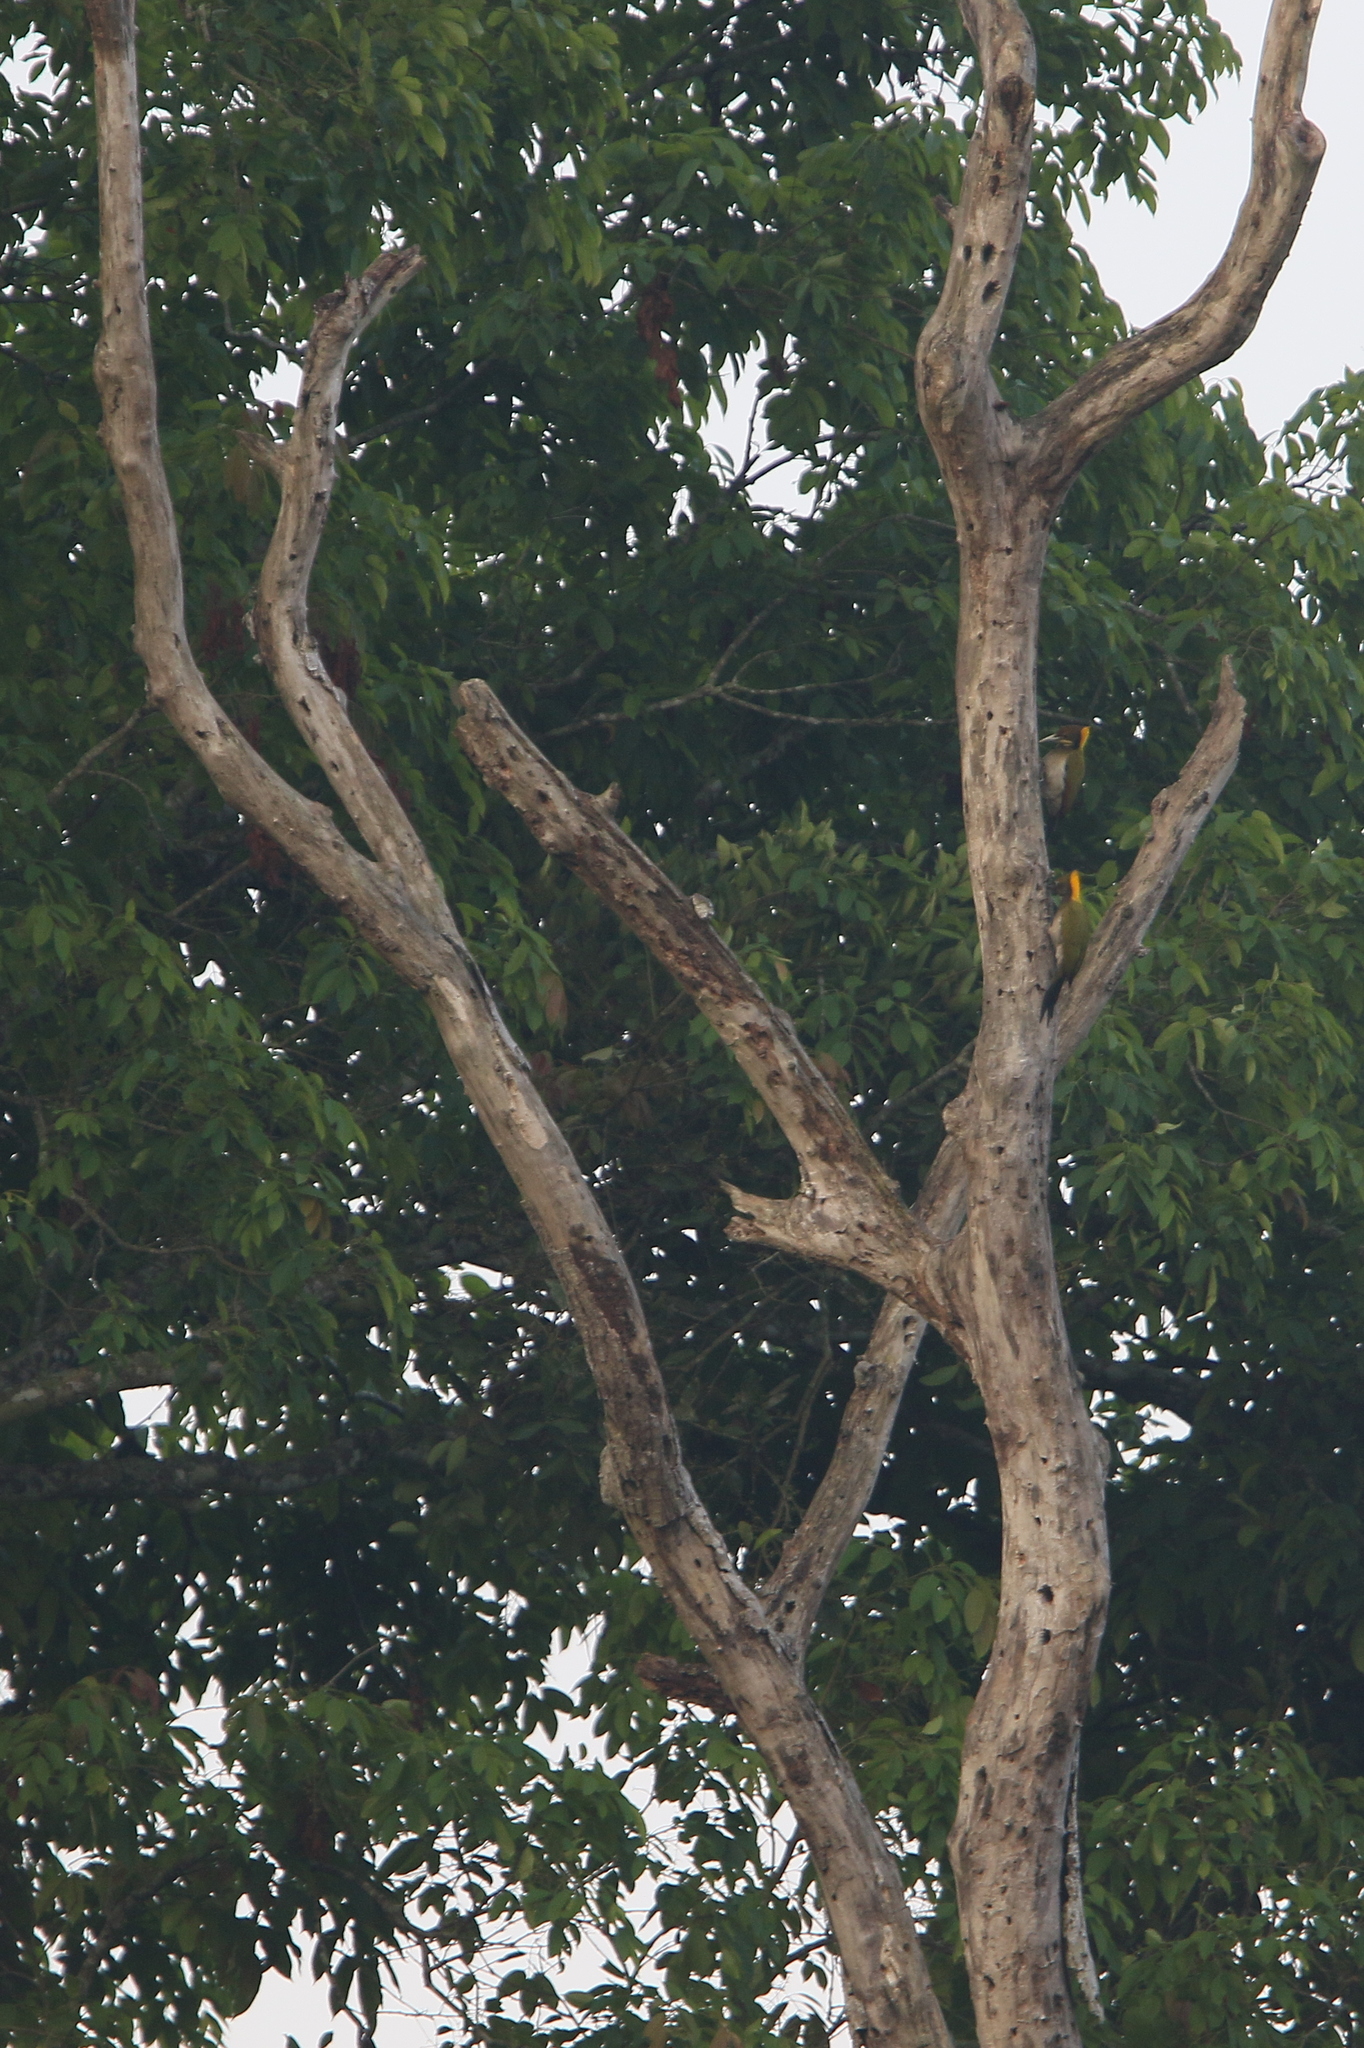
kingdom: Animalia
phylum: Chordata
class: Aves
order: Piciformes
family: Picidae
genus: Chrysophlegma
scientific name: Chrysophlegma flavinucha
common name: Greater yellownape
